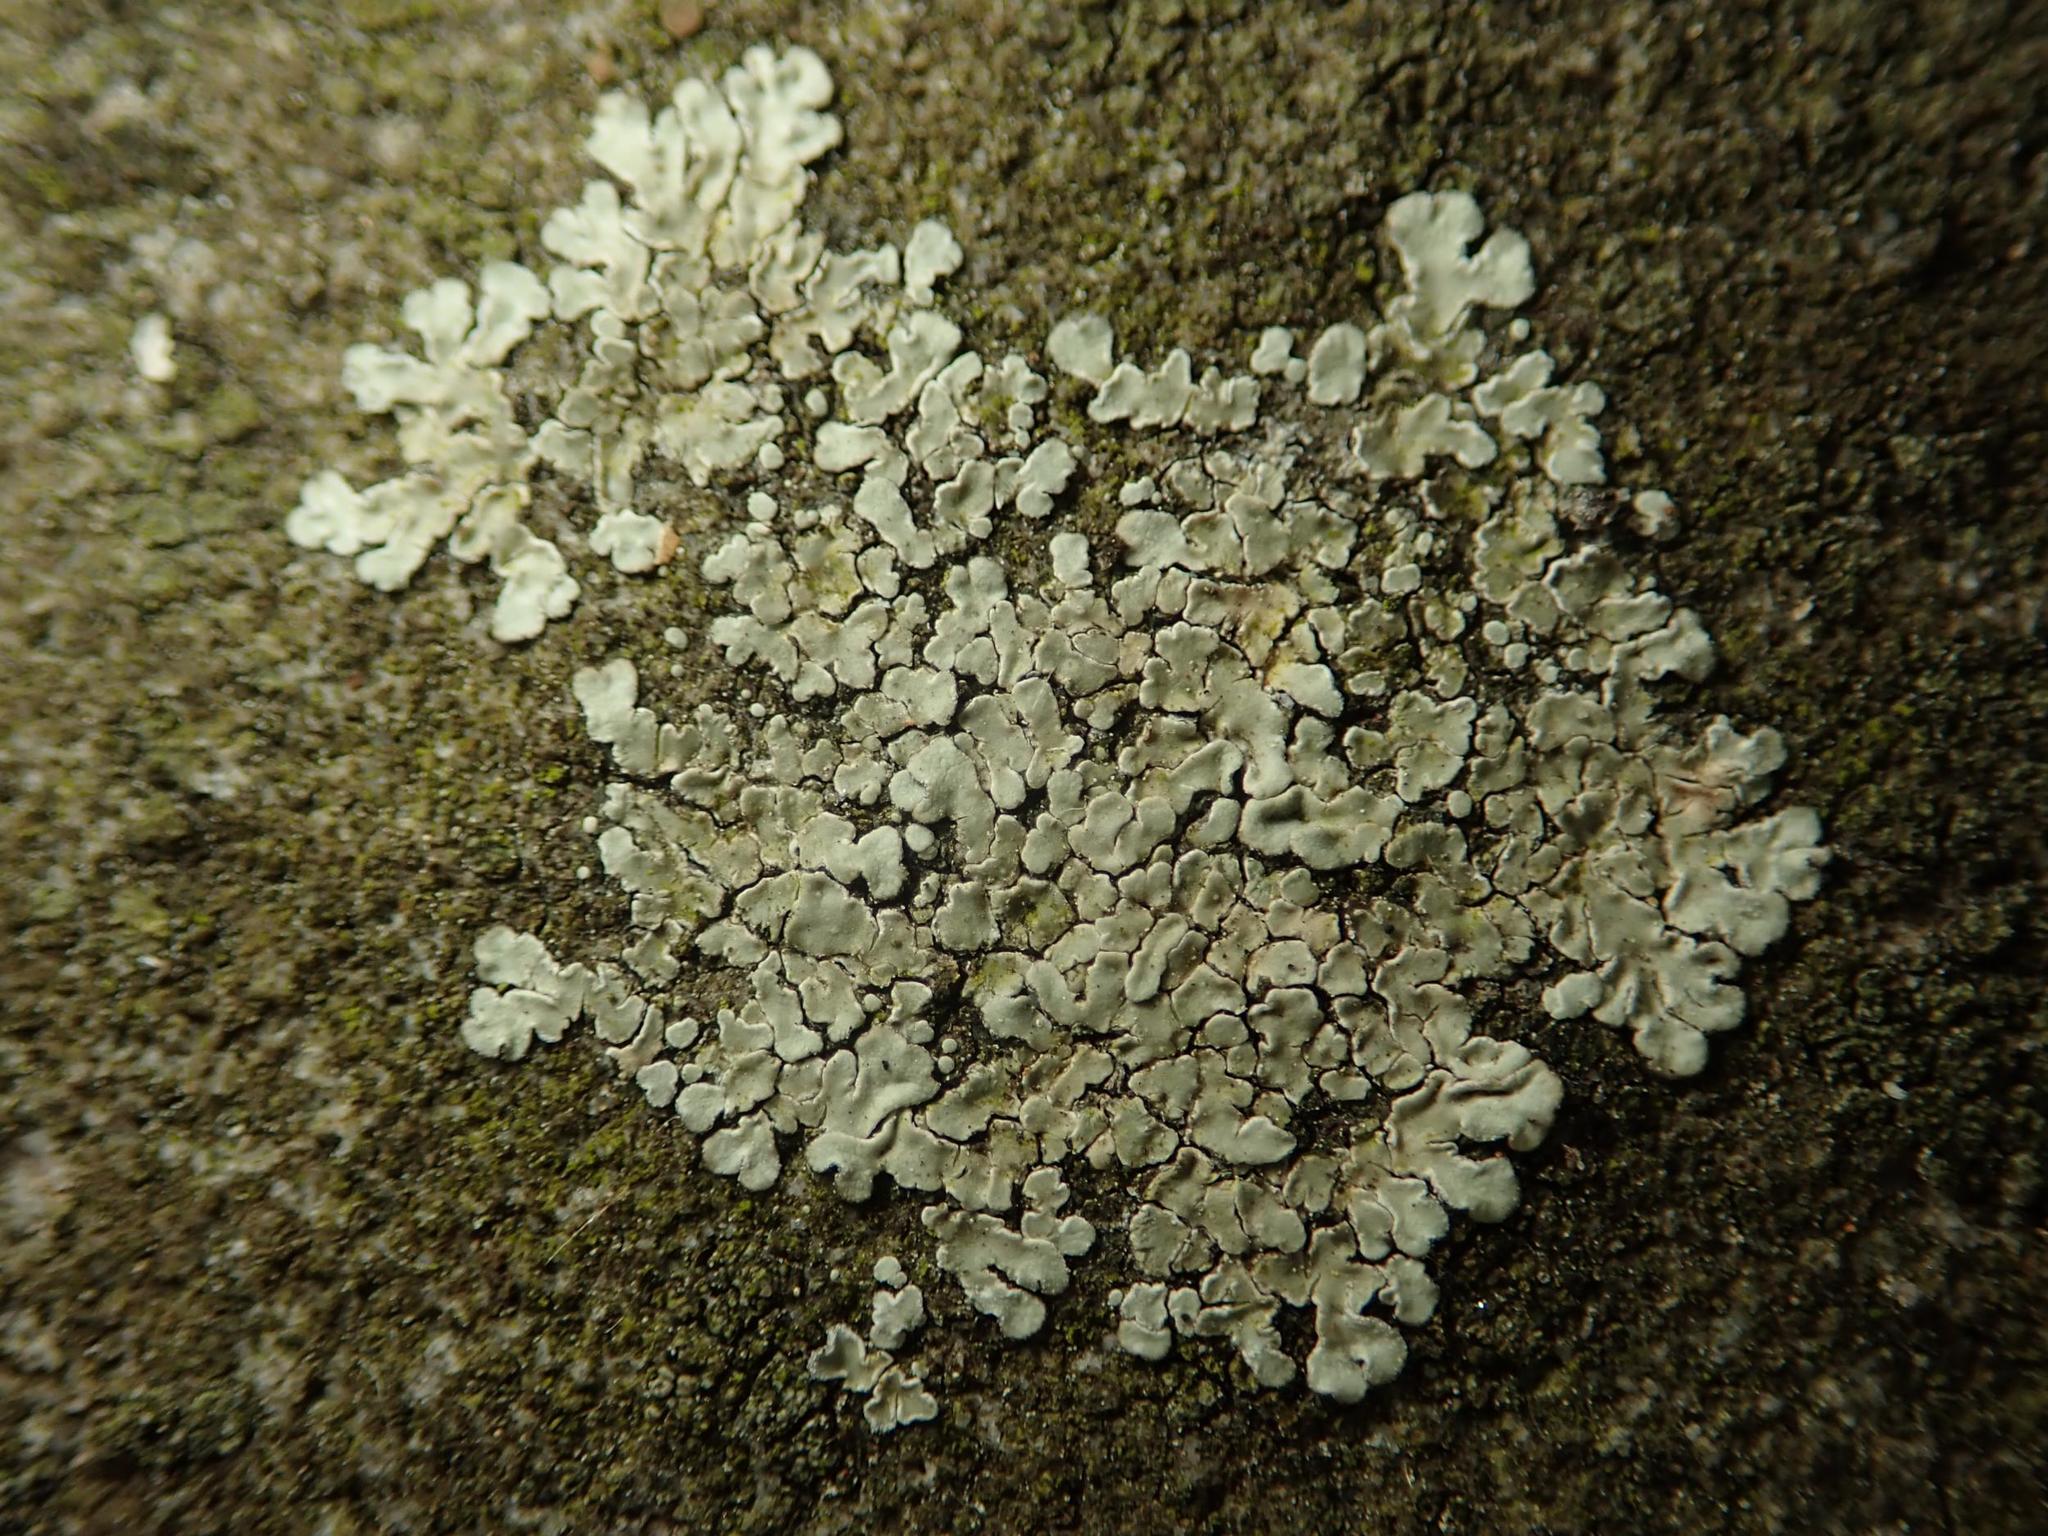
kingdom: Fungi
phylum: Ascomycota
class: Lecanoromycetes
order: Lecanorales
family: Lecanoraceae
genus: Protoparmeliopsis
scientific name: Protoparmeliopsis muralis
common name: Stonewall rim lichen
